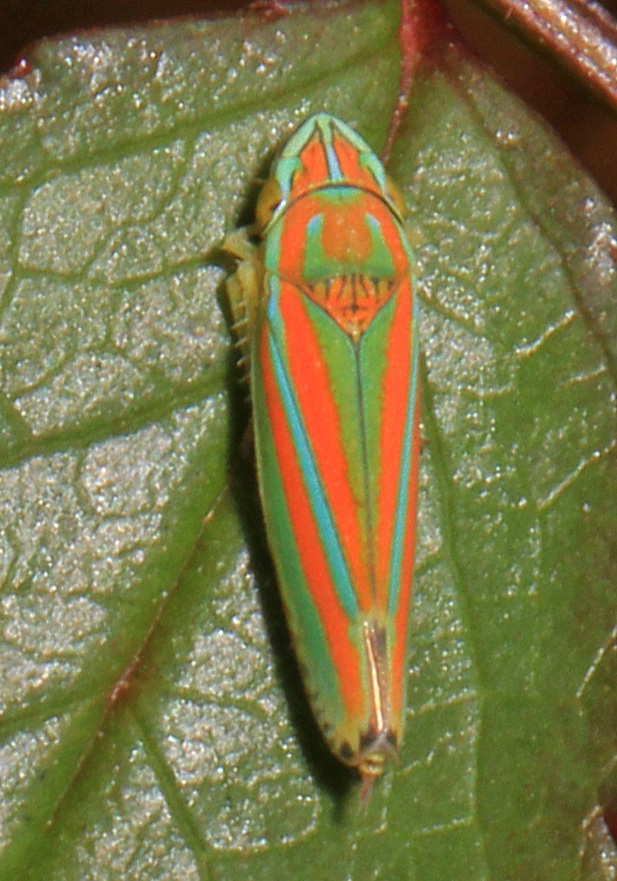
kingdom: Animalia
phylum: Arthropoda
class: Insecta
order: Hemiptera
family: Cicadellidae
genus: Graphocephala
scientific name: Graphocephala versuta
